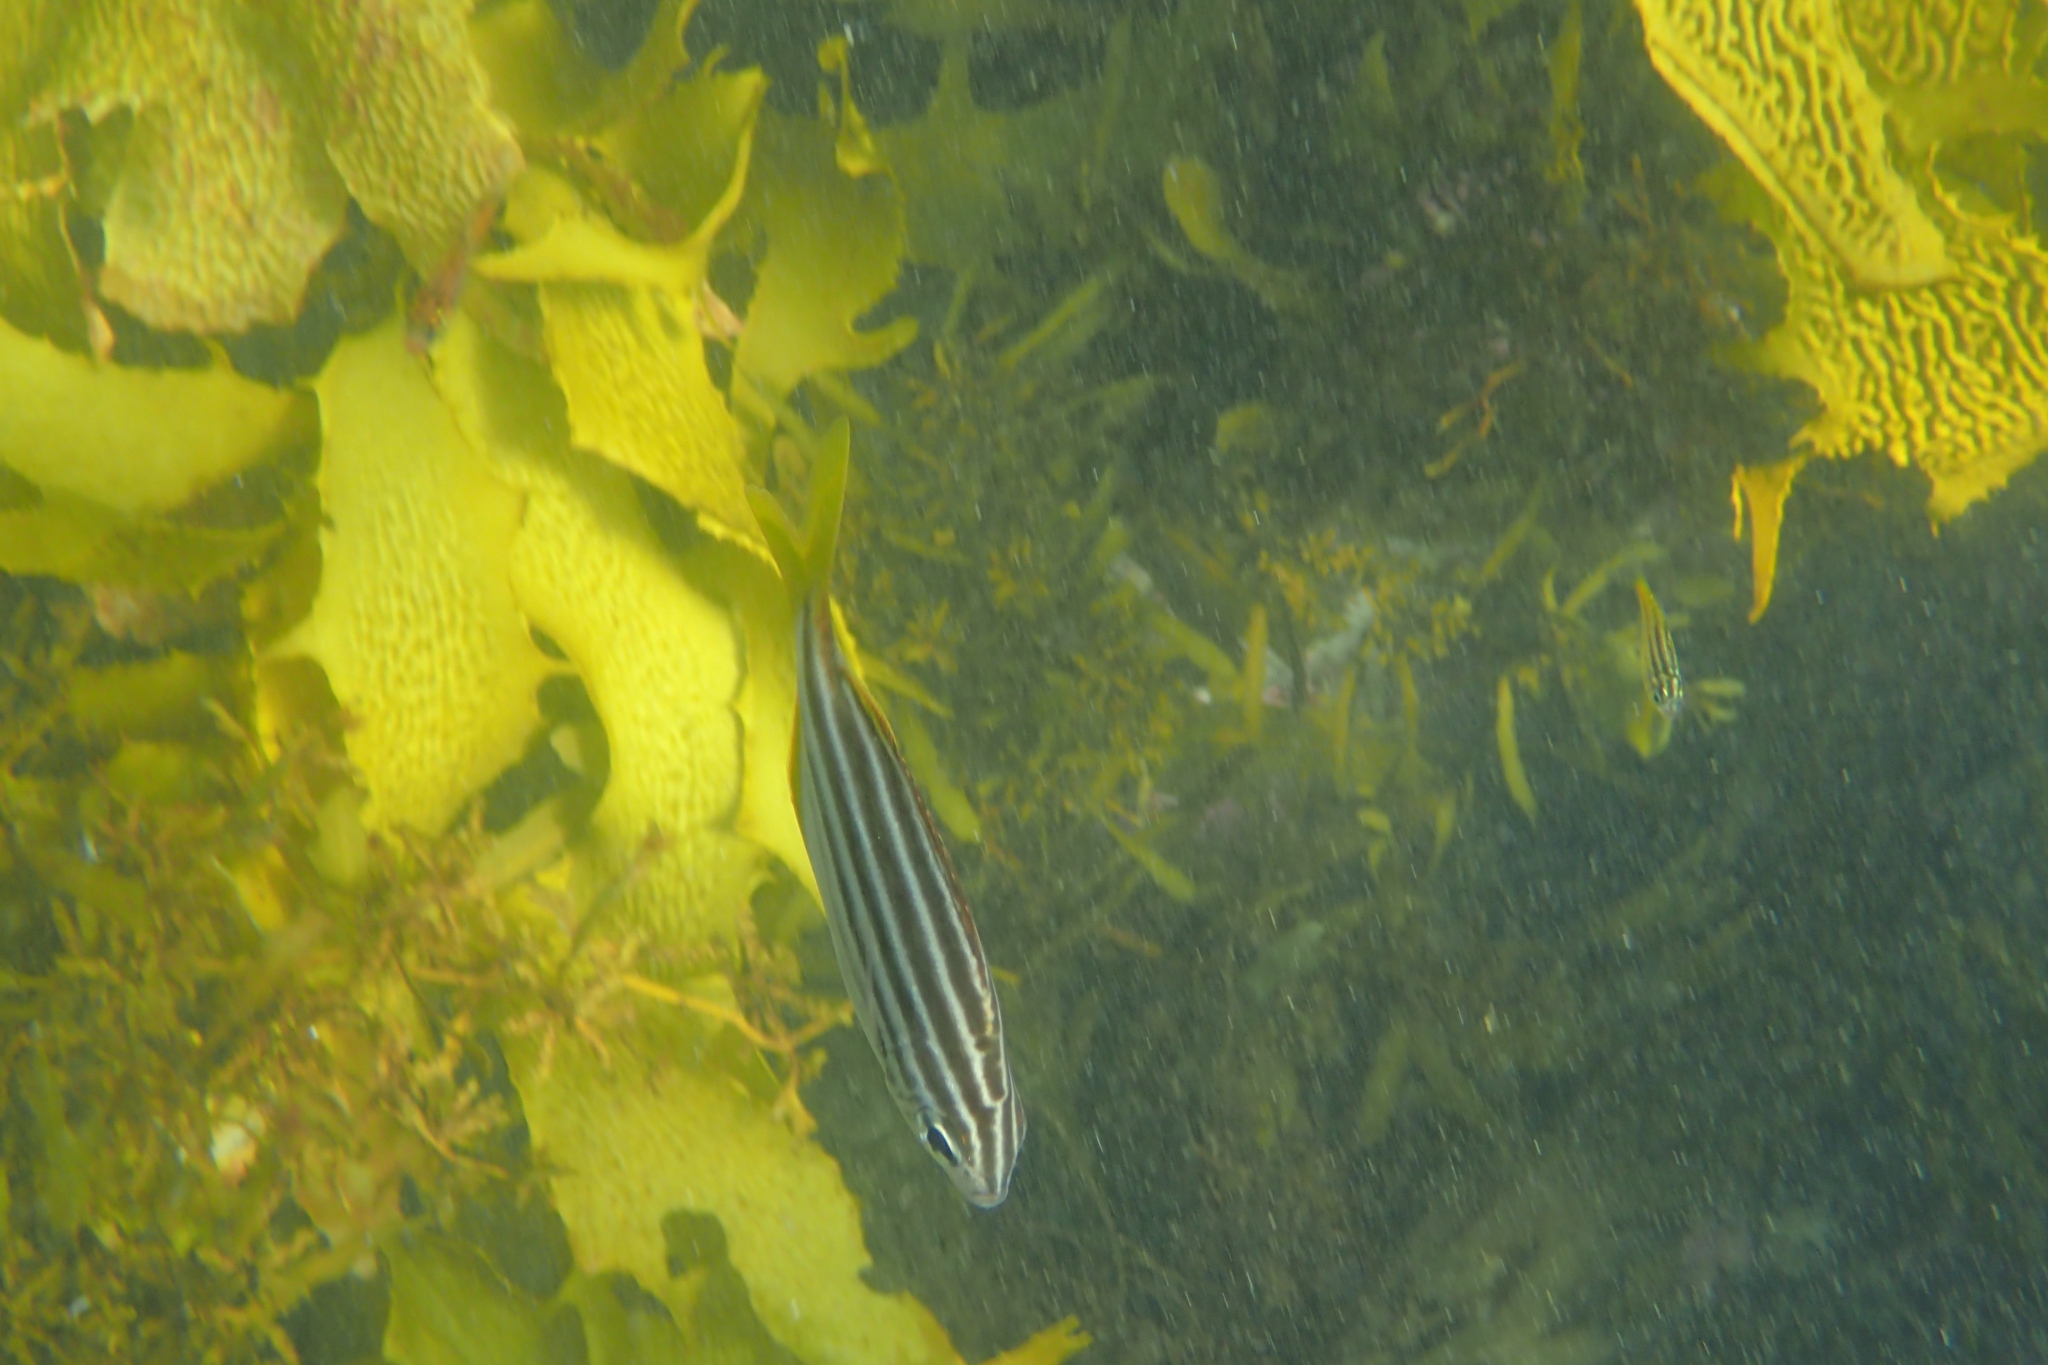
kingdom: Animalia
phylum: Chordata
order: Perciformes
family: Kyphosidae
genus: Atypichthys
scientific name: Atypichthys strigatus
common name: Australian mado
